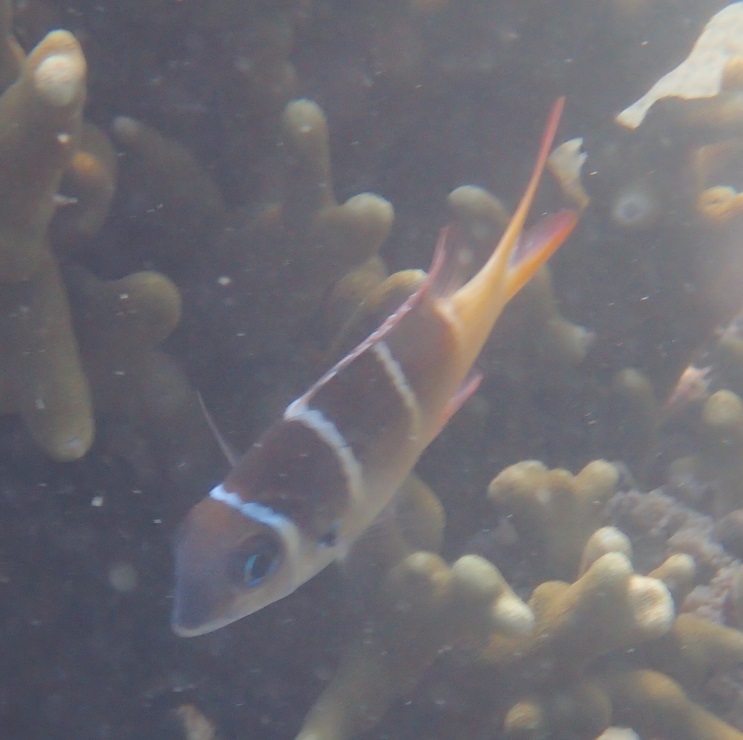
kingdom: Animalia
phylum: Chordata
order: Perciformes
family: Lethrinidae
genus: Monotaxis
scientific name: Monotaxis heterodon
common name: Redfin emperor
